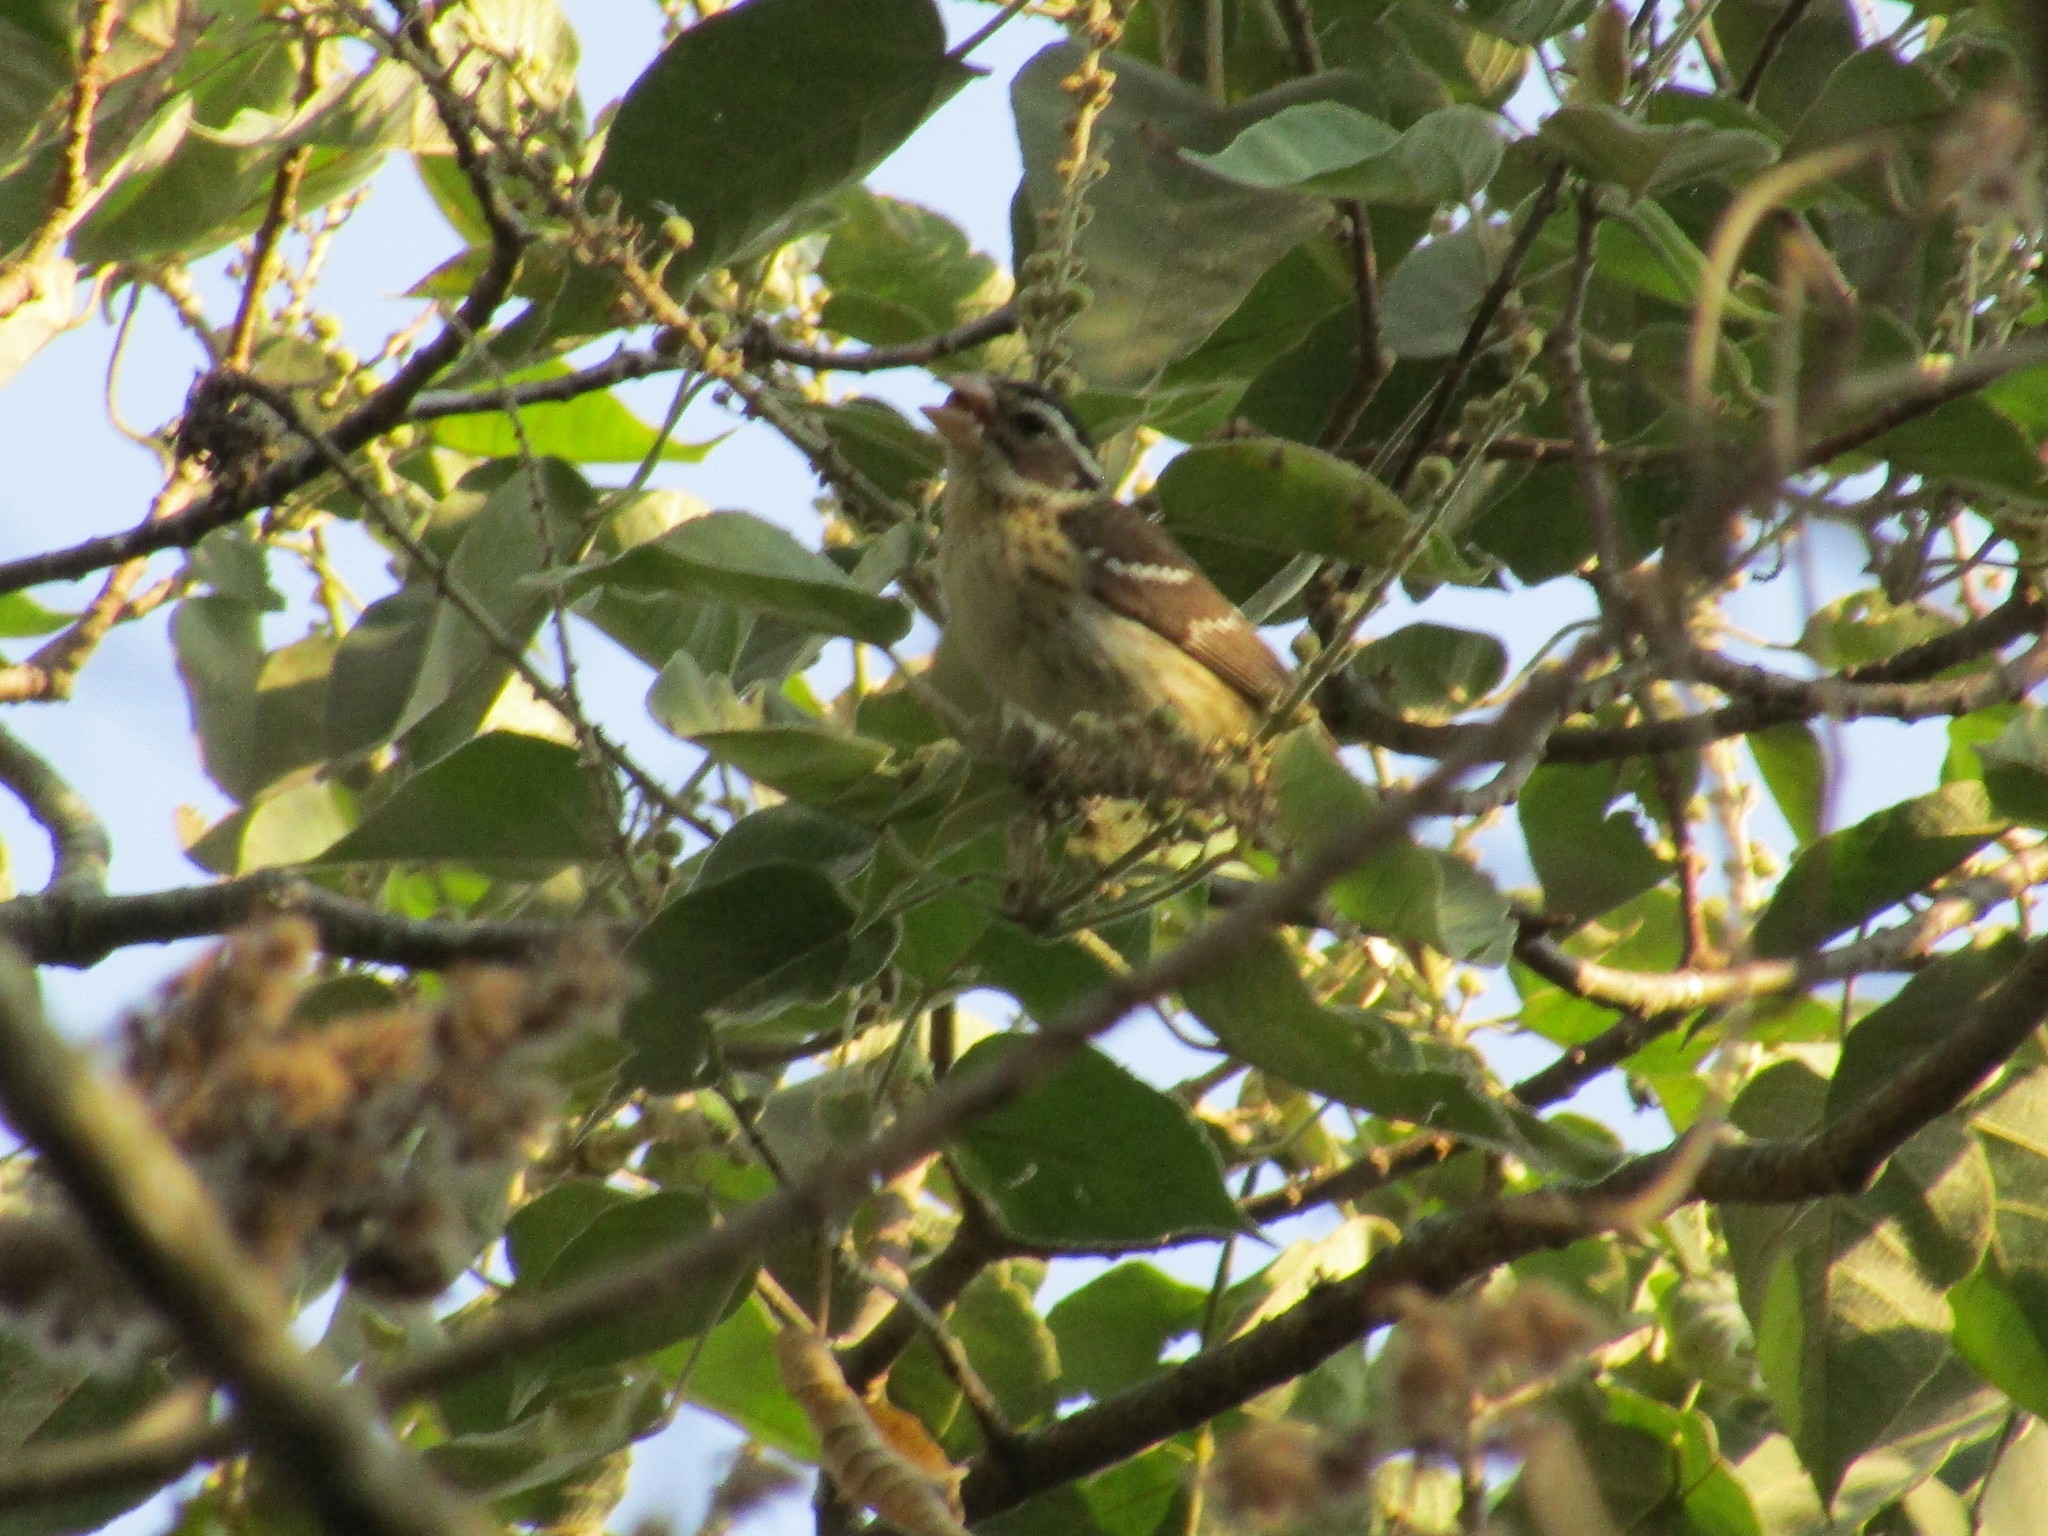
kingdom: Animalia
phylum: Chordata
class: Aves
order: Passeriformes
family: Cardinalidae
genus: Pheucticus
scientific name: Pheucticus ludovicianus
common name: Rose-breasted grosbeak
